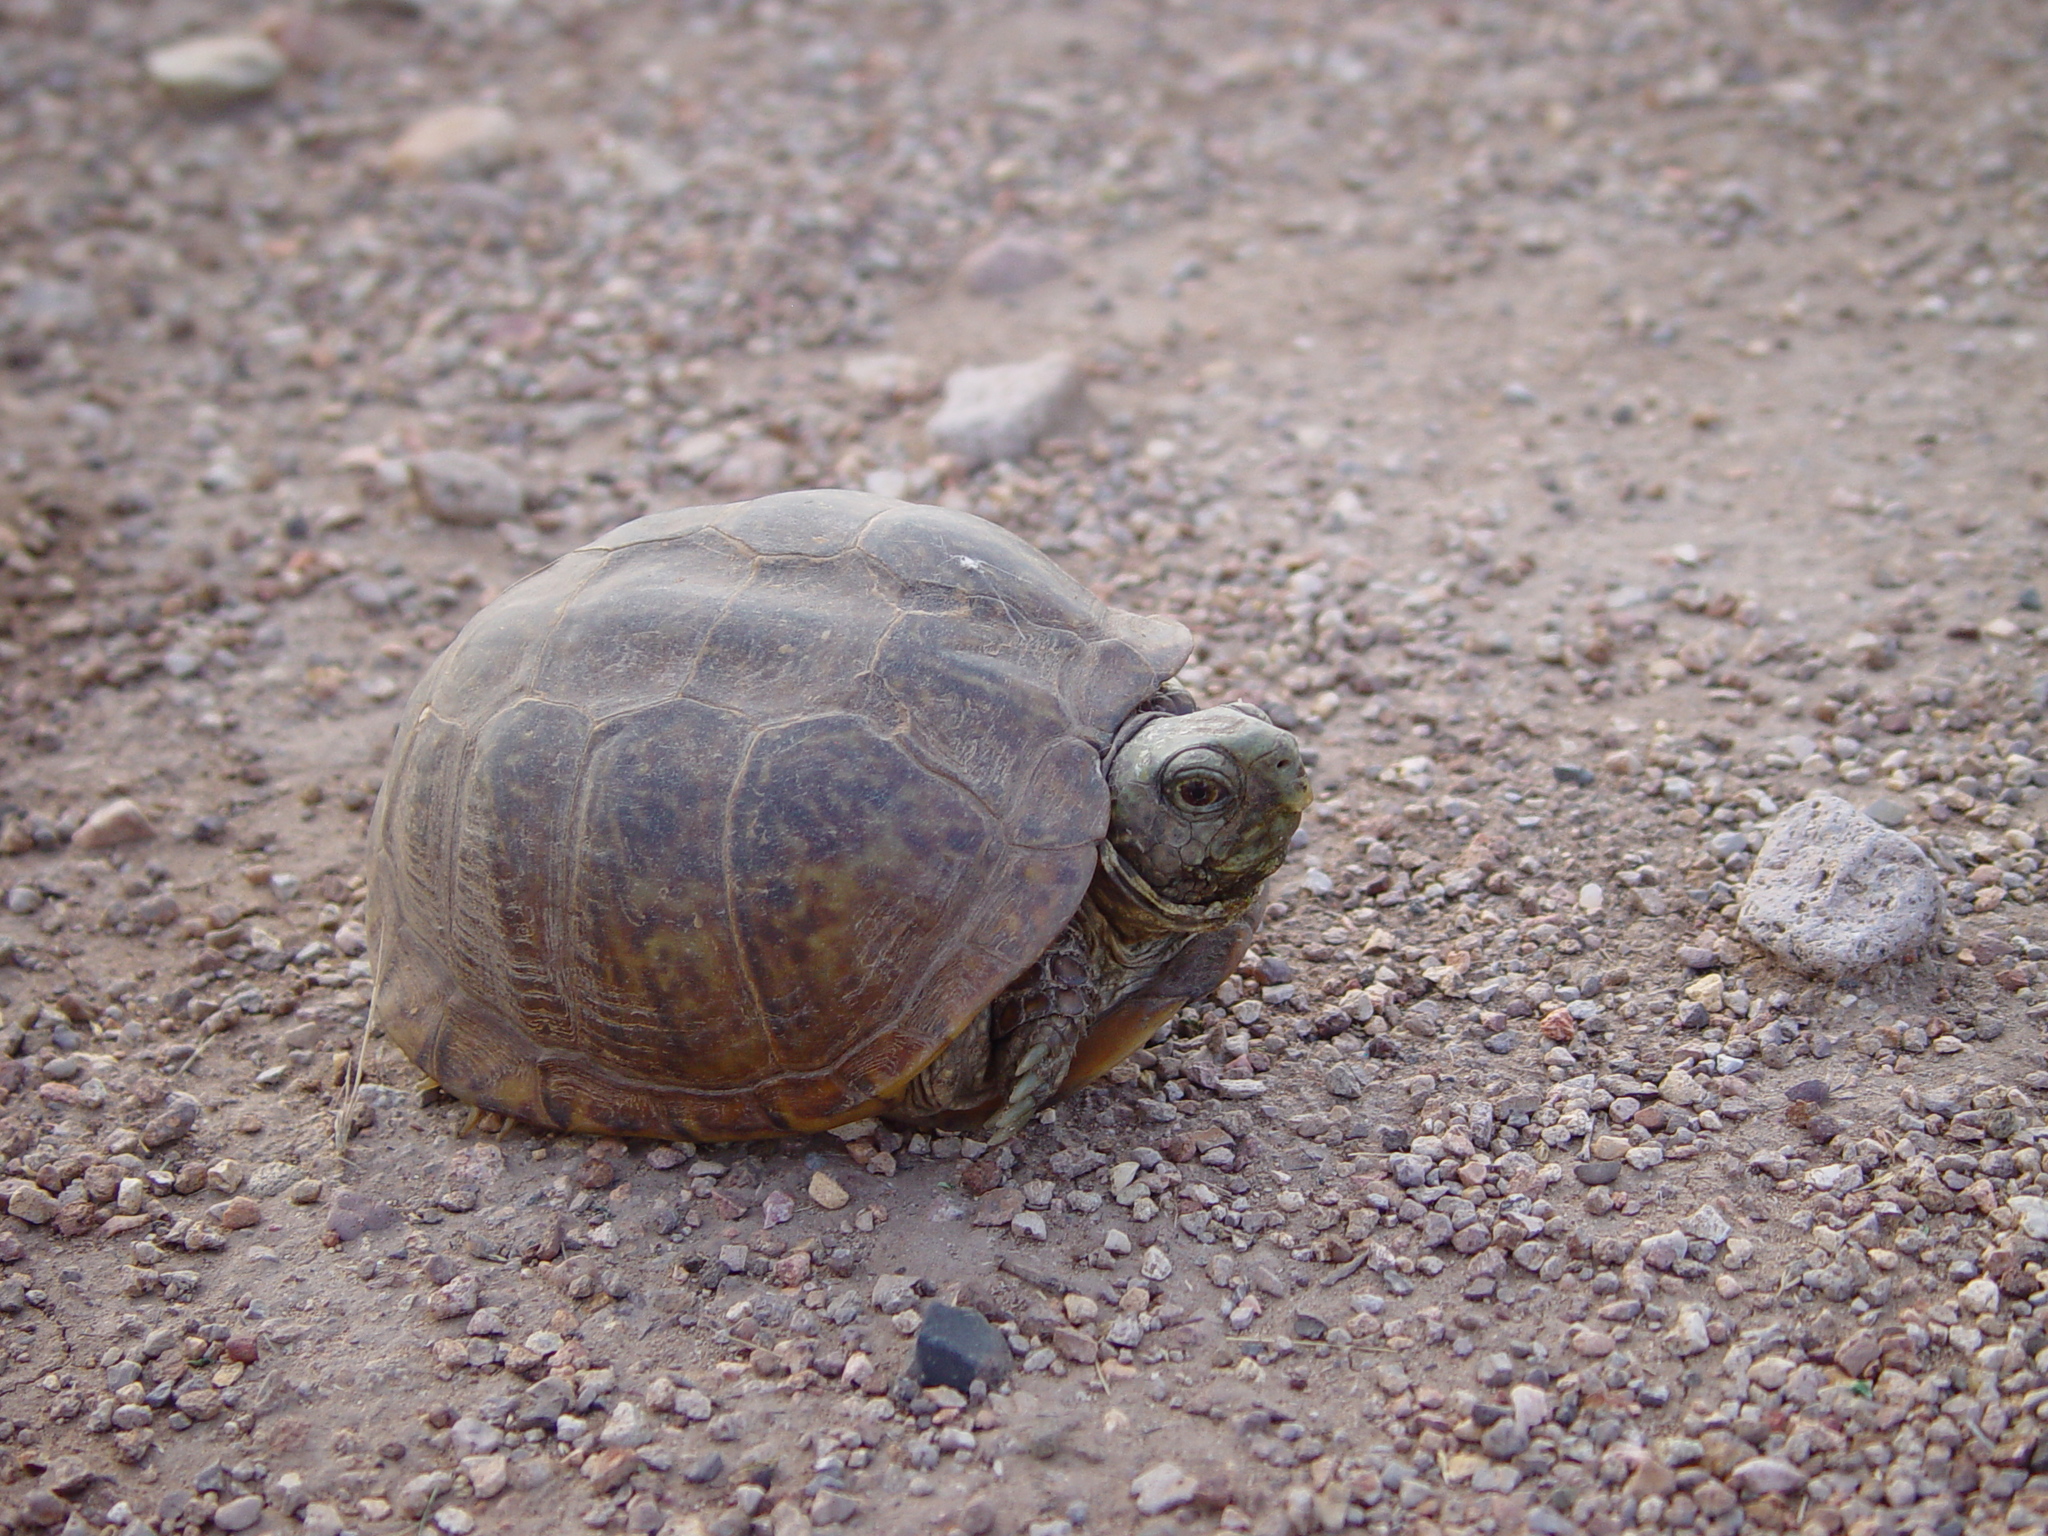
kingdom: Animalia
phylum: Chordata
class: Testudines
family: Emydidae
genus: Terrapene
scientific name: Terrapene ornata
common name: Western box turtle
